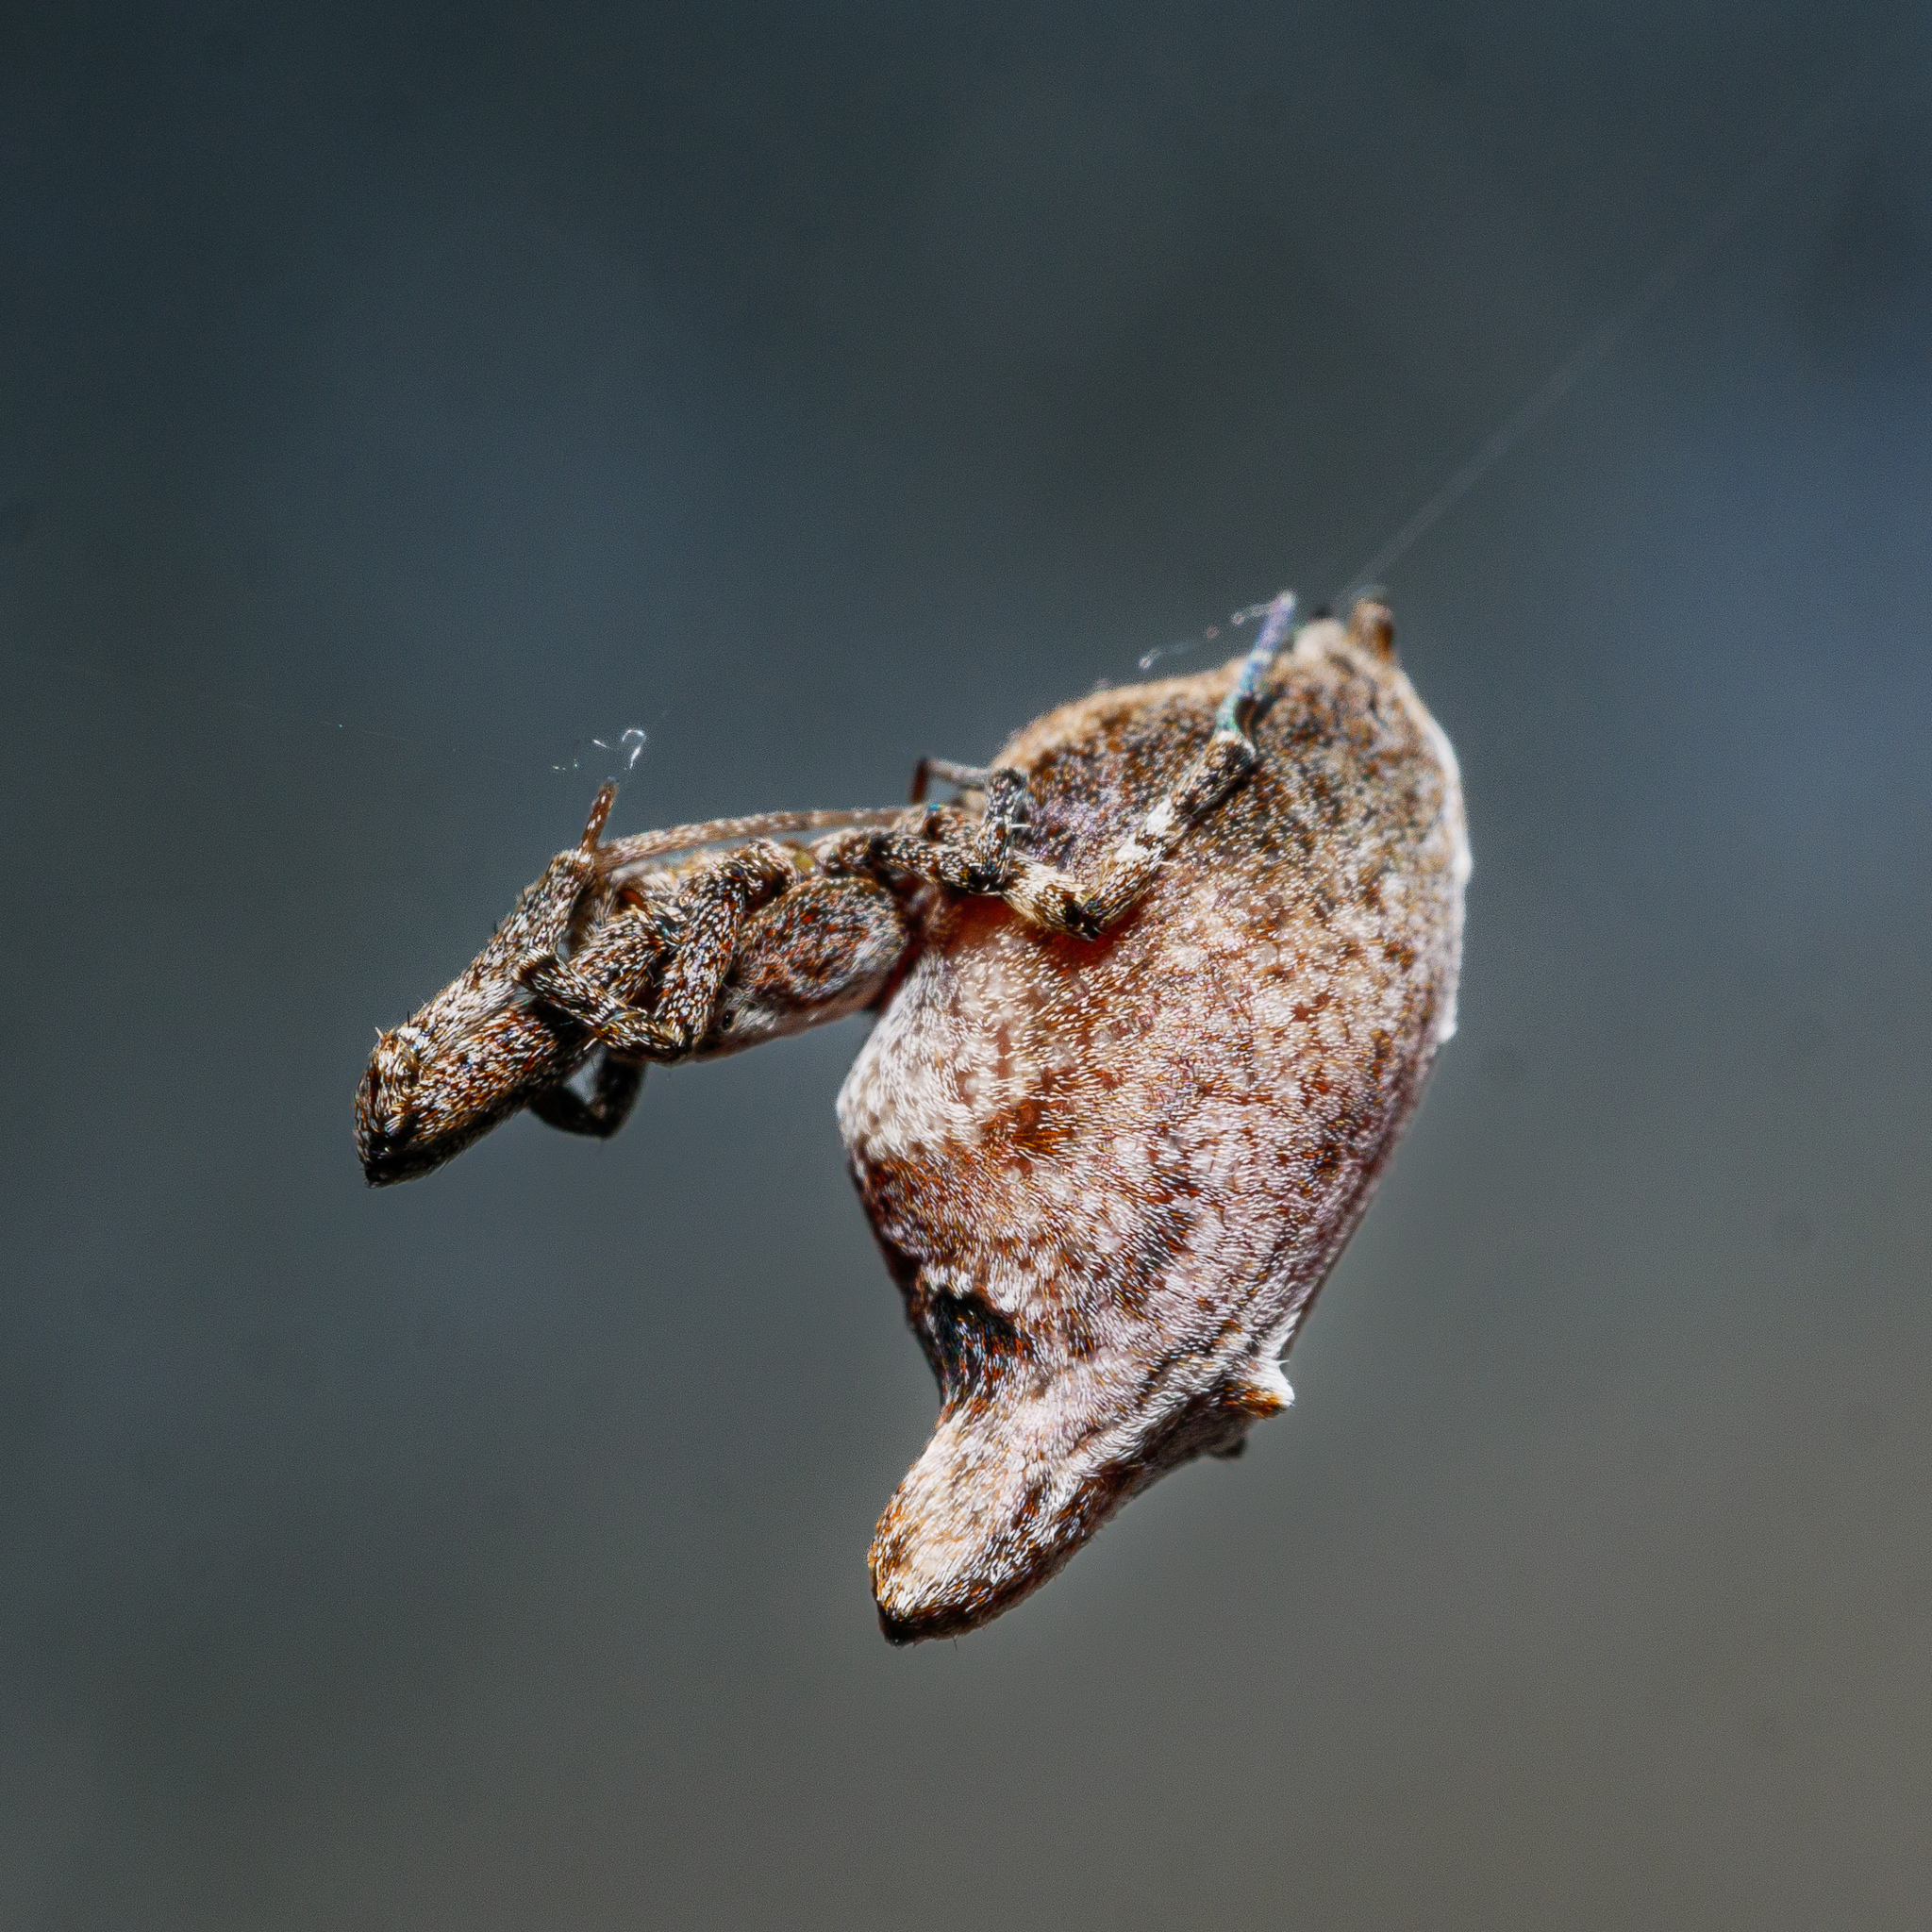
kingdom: Animalia
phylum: Arthropoda
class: Arachnida
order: Araneae
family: Uloboridae
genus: Philoponella
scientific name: Philoponella congregabilis
